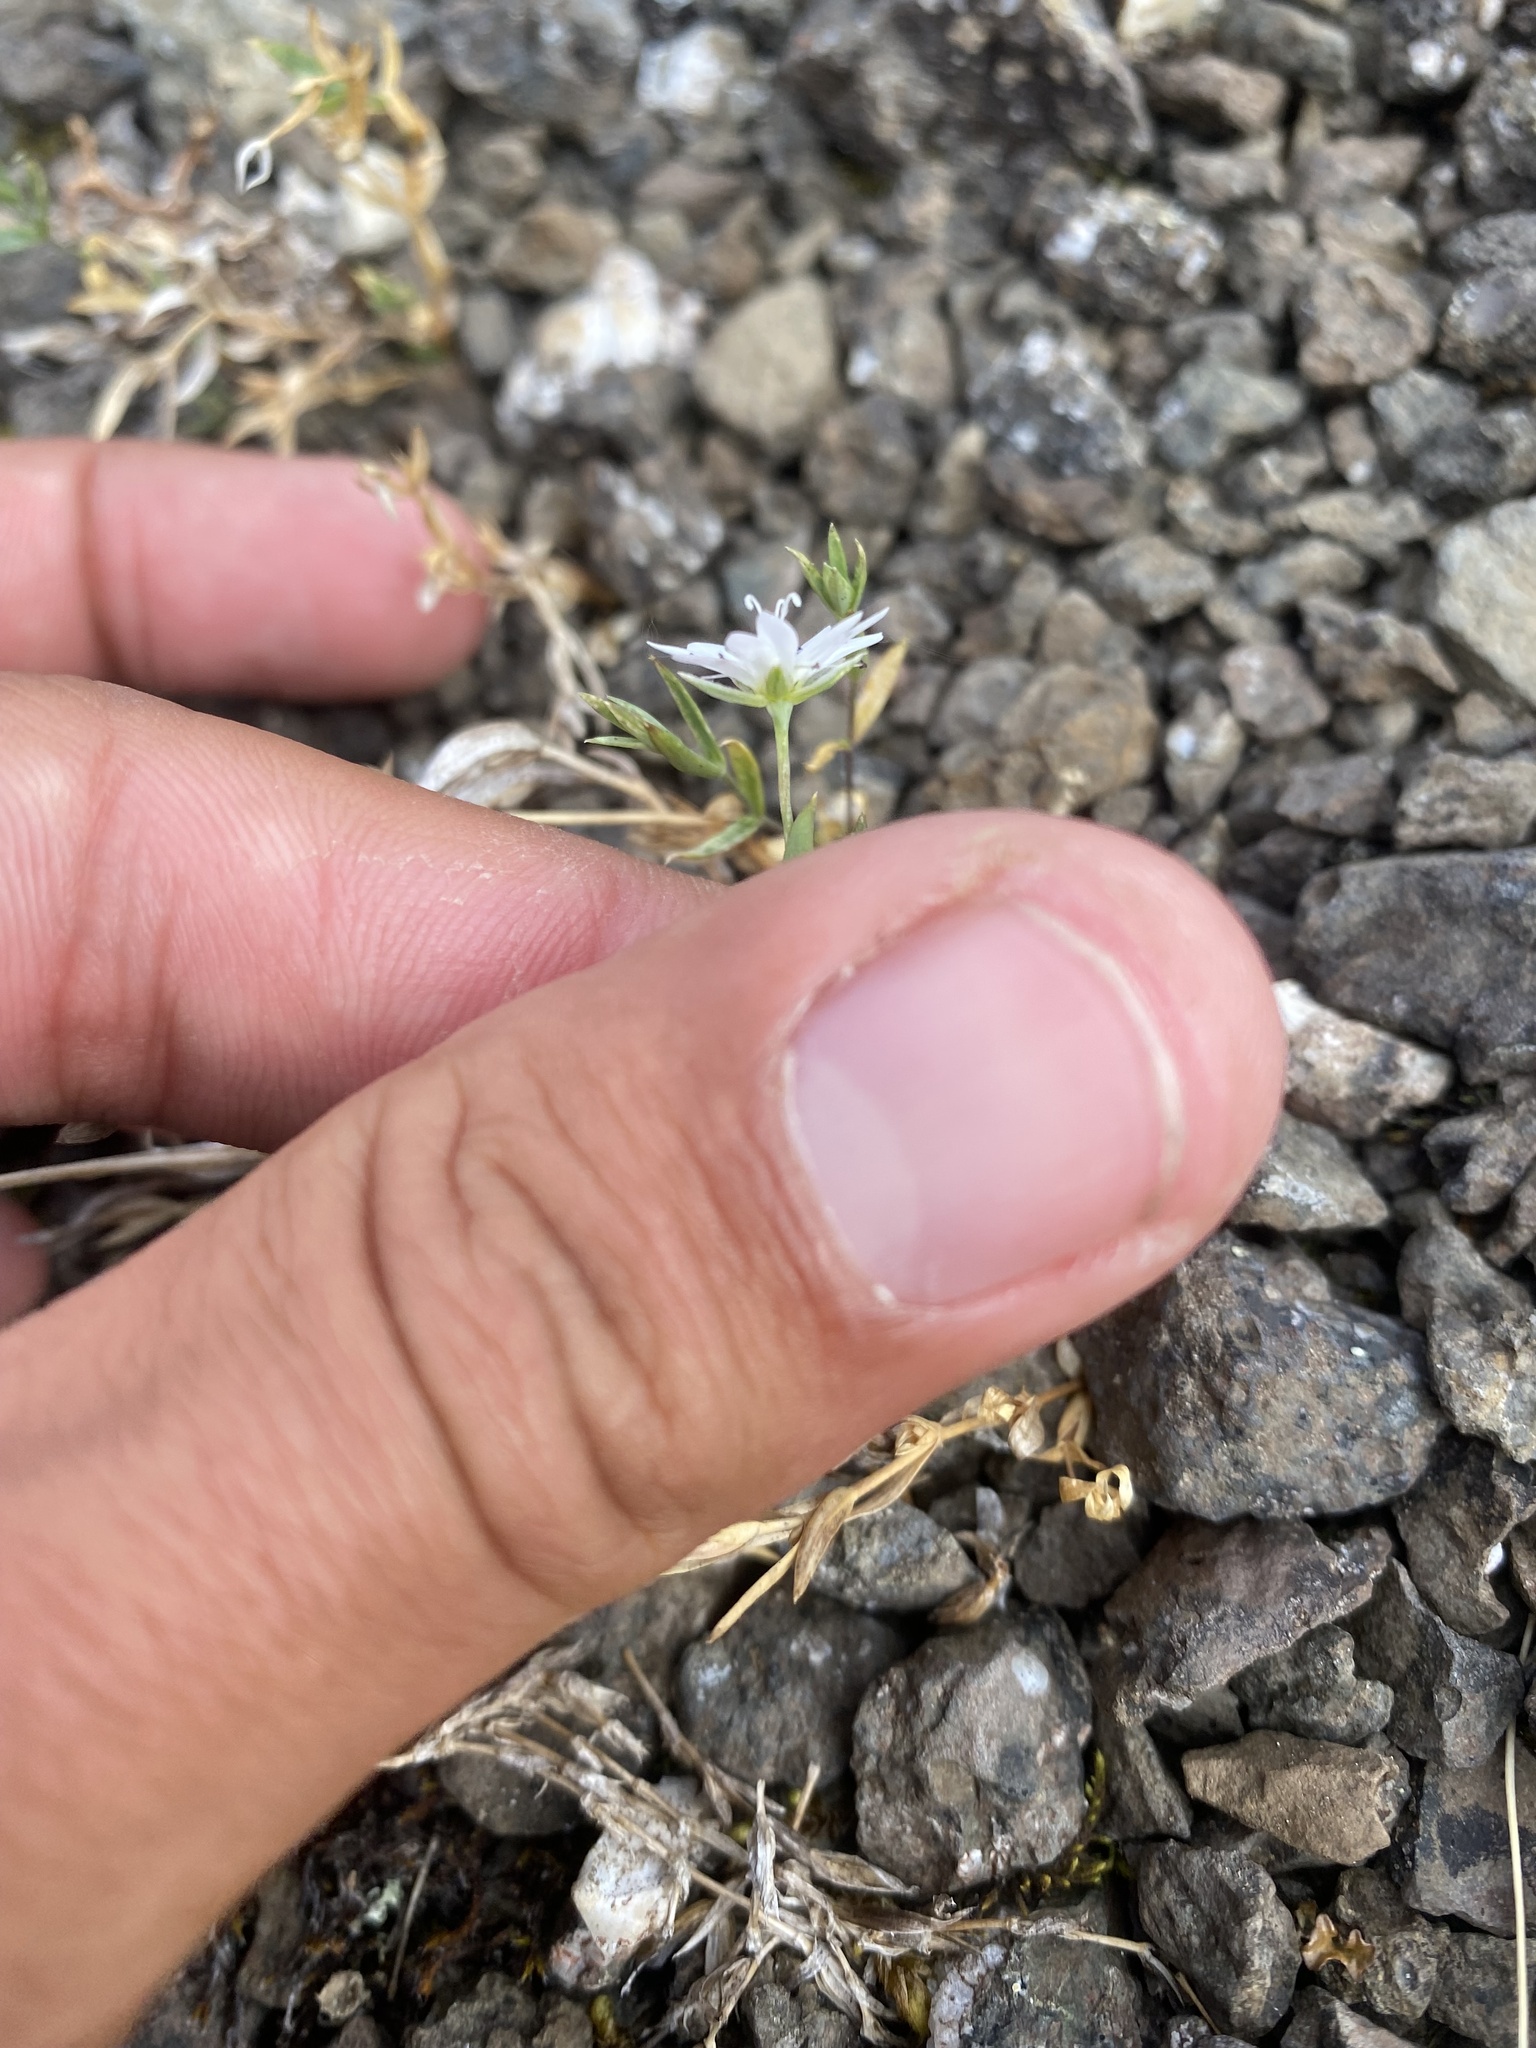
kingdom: Plantae
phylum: Tracheophyta
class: Magnoliopsida
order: Caryophyllales
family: Caryophyllaceae
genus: Stellaria
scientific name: Stellaria fischeriana
